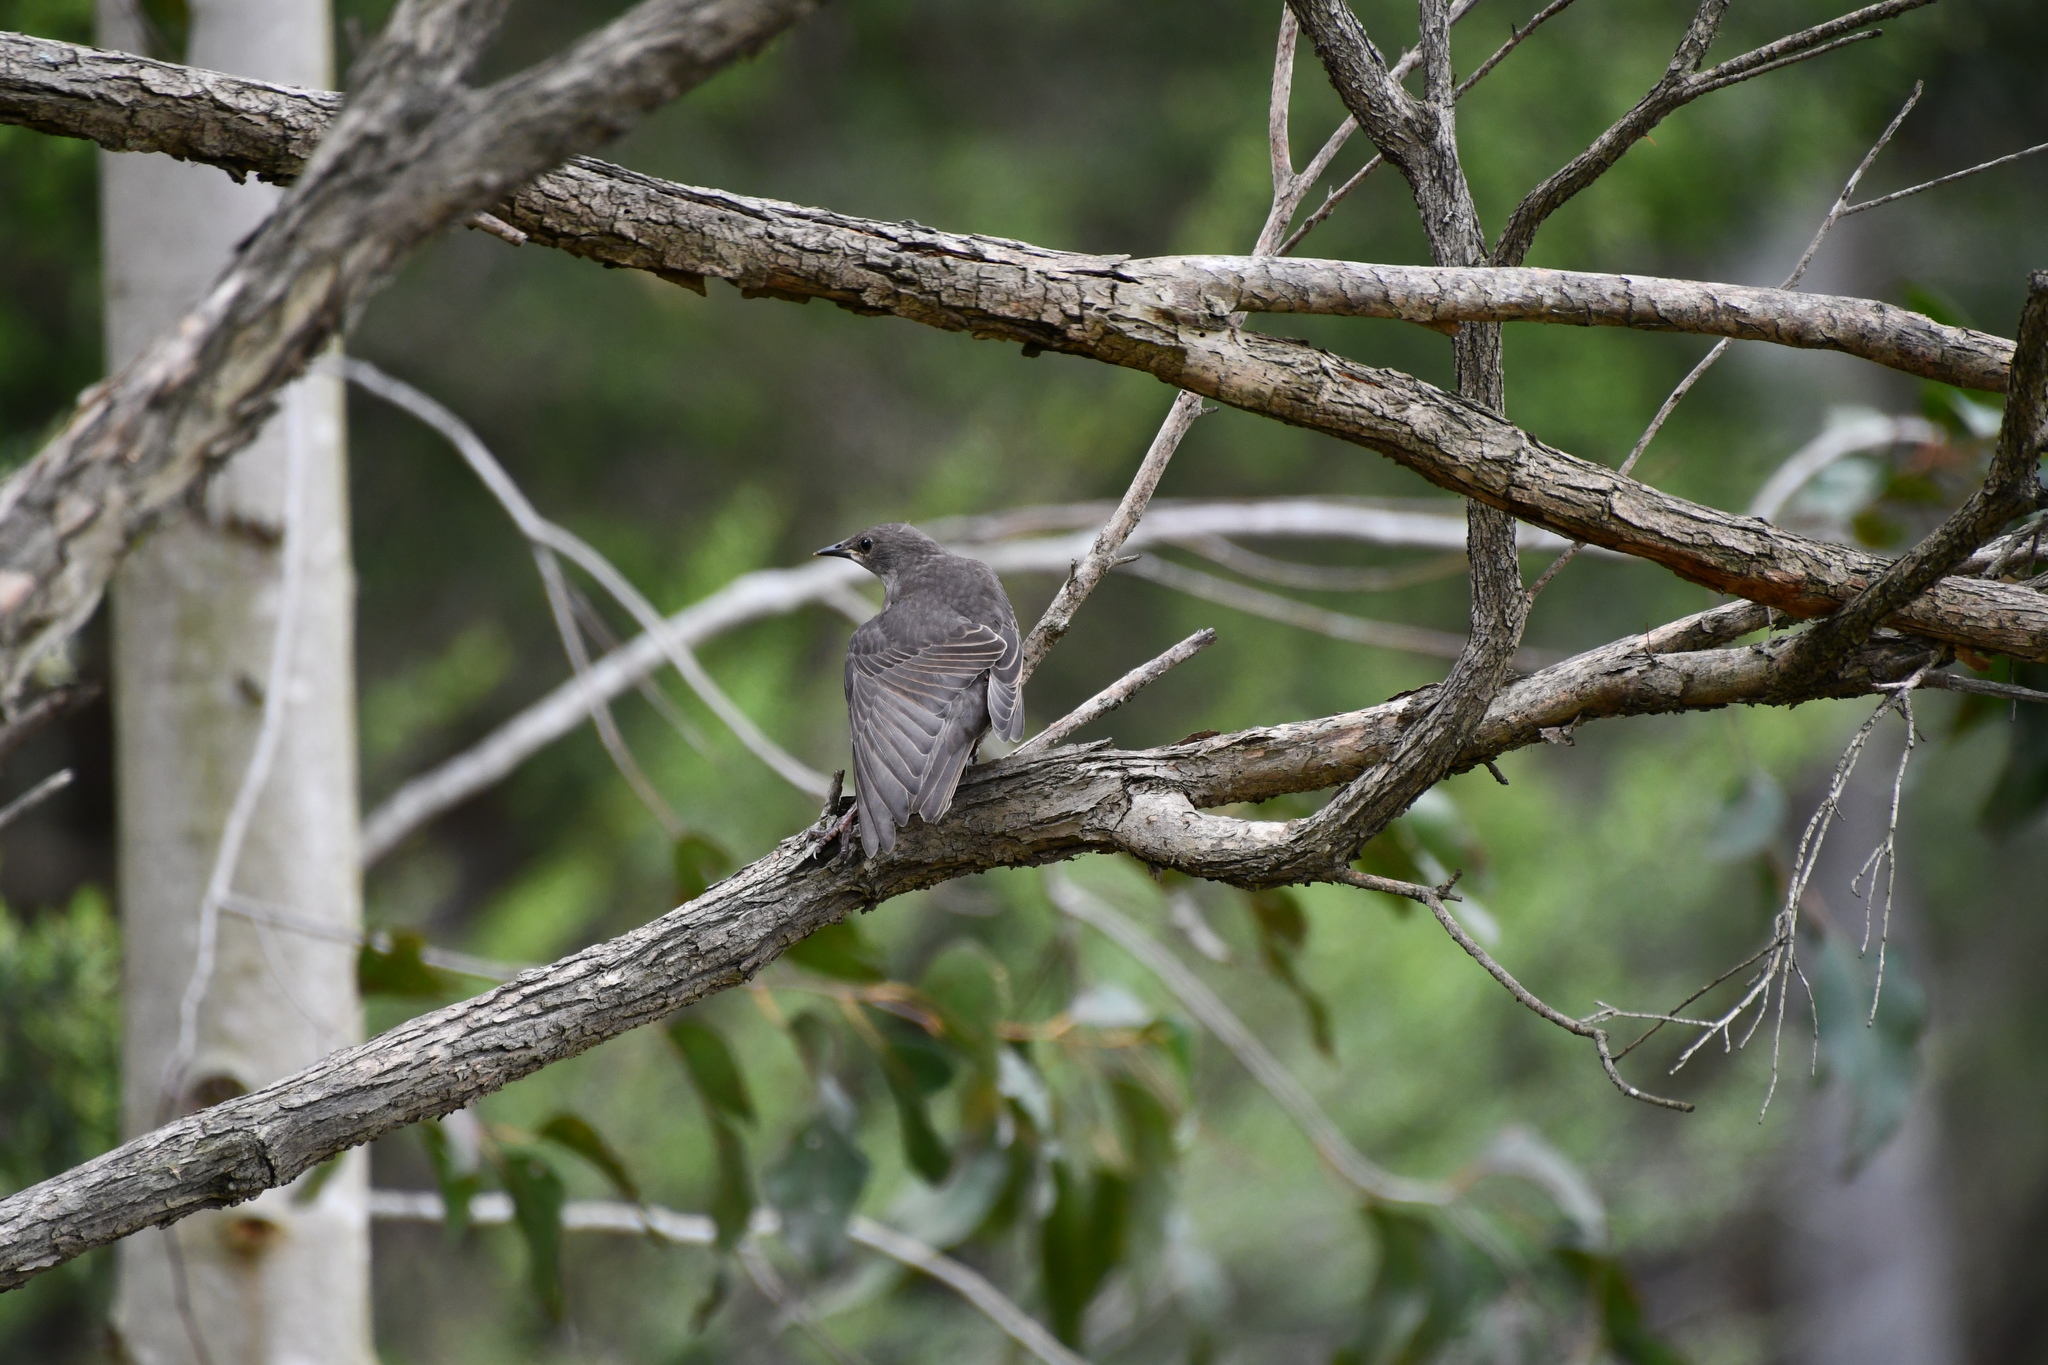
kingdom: Animalia
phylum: Chordata
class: Aves
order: Passeriformes
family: Sturnidae
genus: Sturnus
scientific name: Sturnus vulgaris
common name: Common starling
